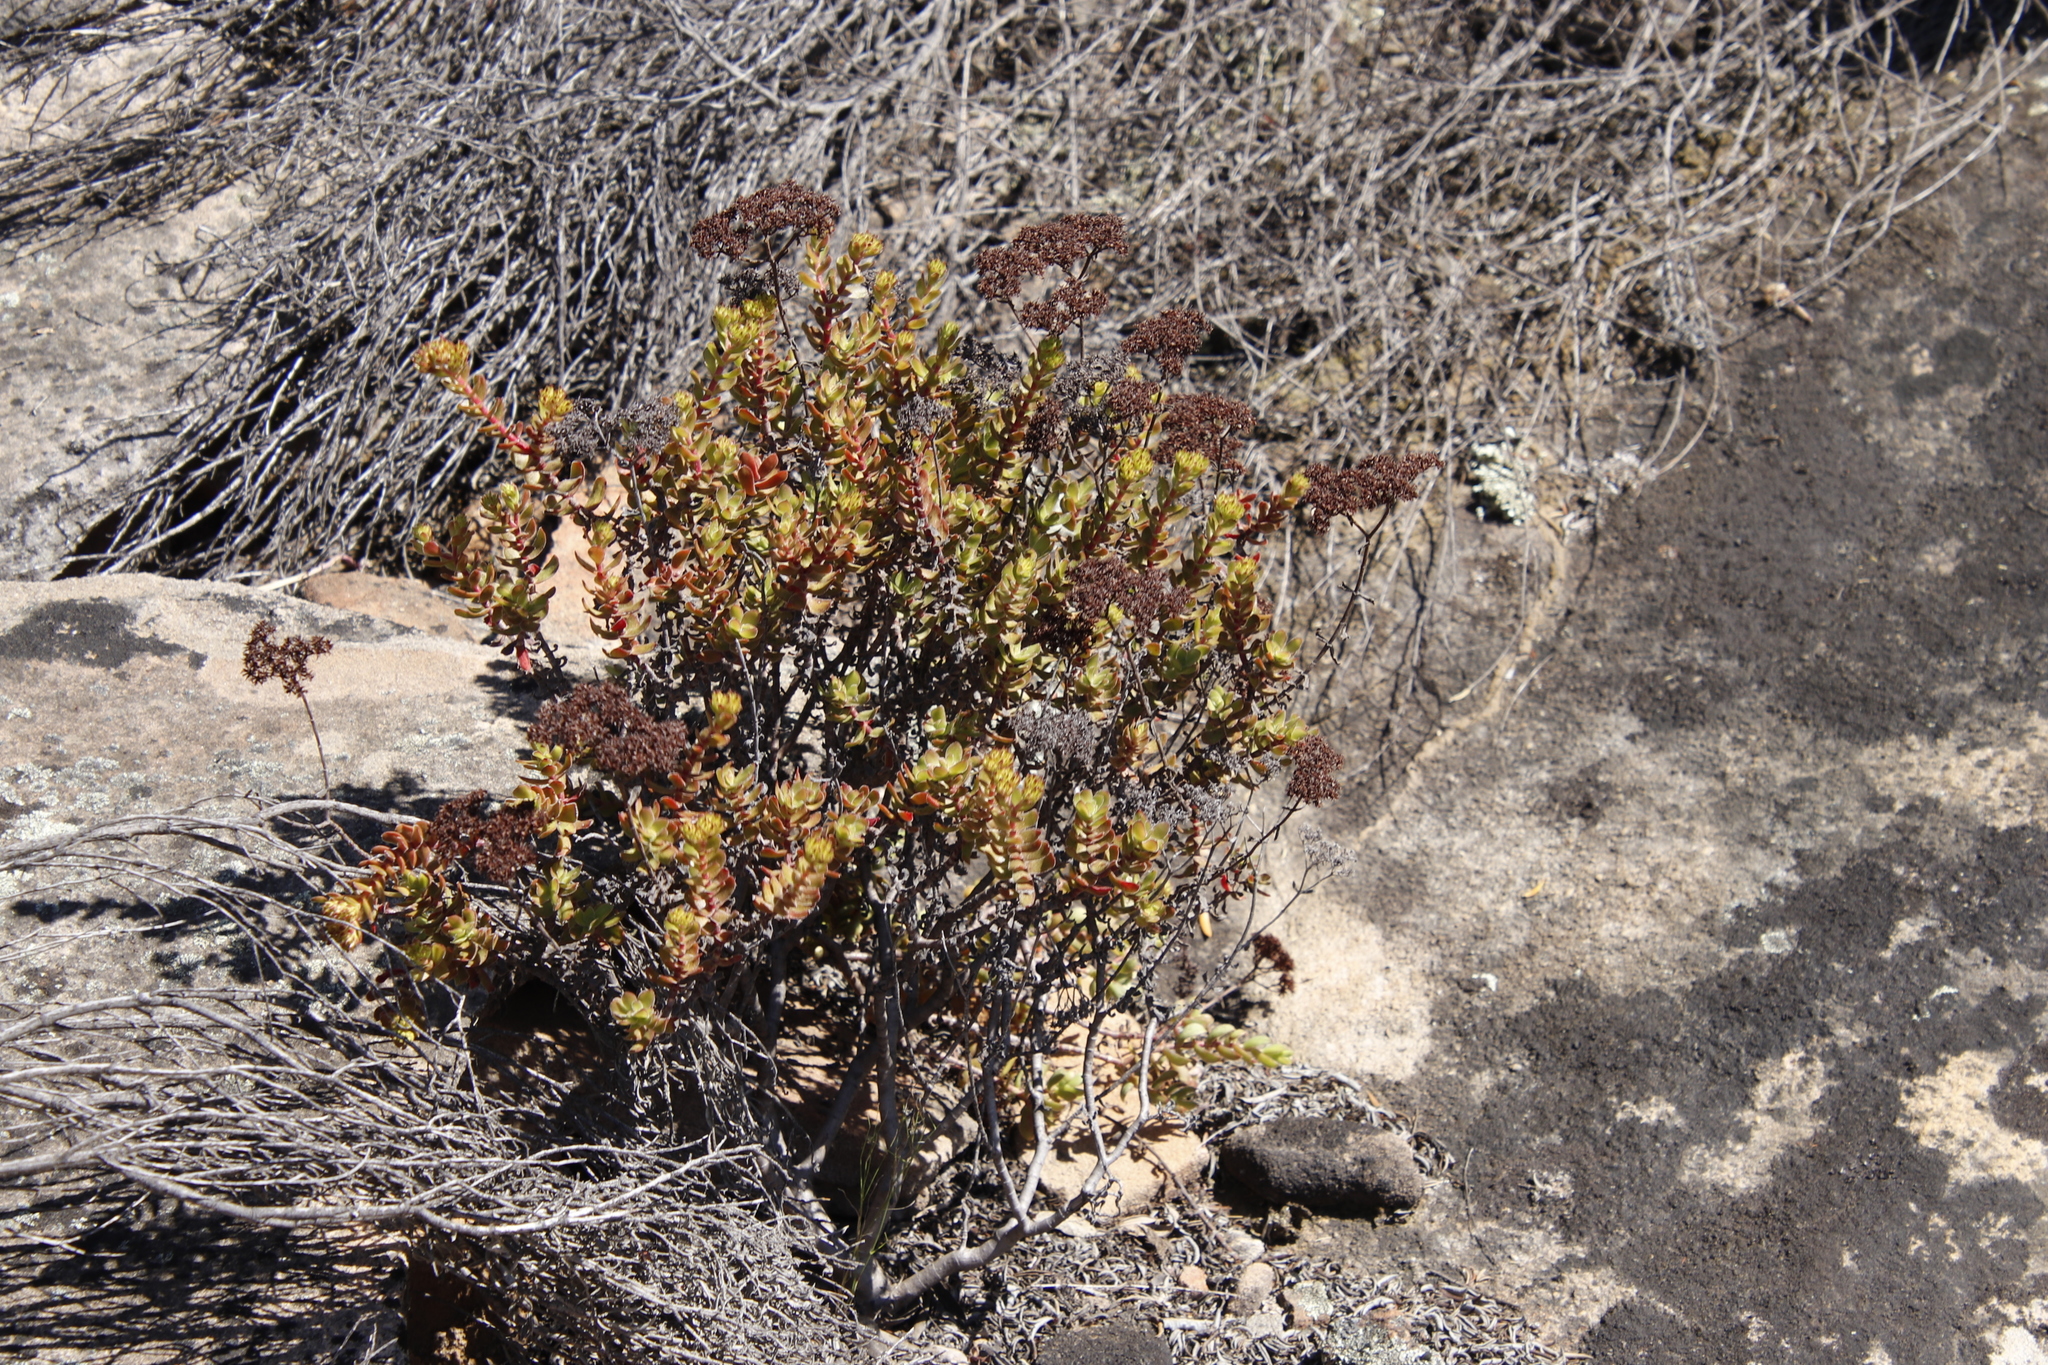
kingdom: Plantae
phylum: Tracheophyta
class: Magnoliopsida
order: Saxifragales
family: Crassulaceae
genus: Crassula
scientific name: Crassula undulata
